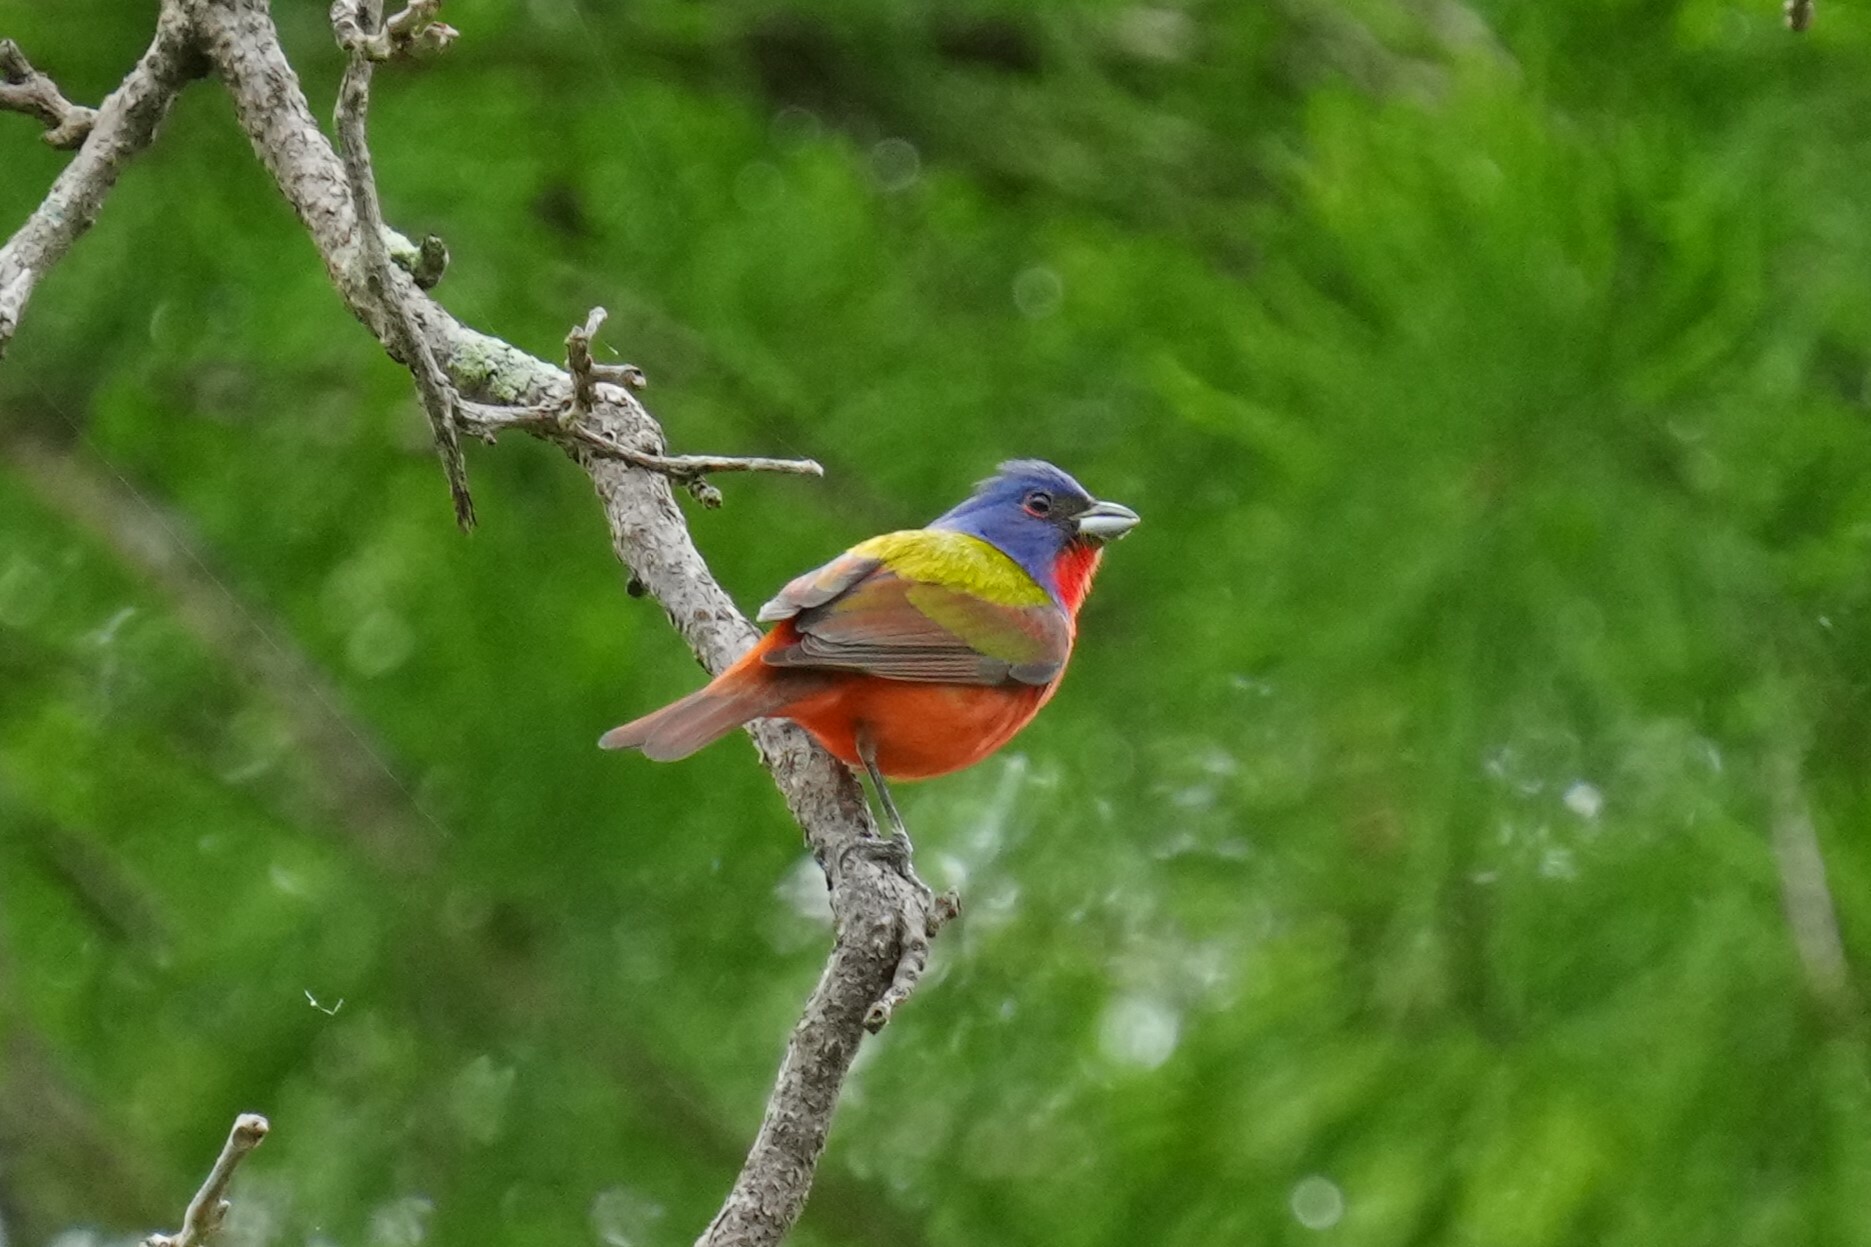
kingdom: Animalia
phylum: Chordata
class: Aves
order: Passeriformes
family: Cardinalidae
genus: Passerina
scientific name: Passerina ciris
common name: Painted bunting
